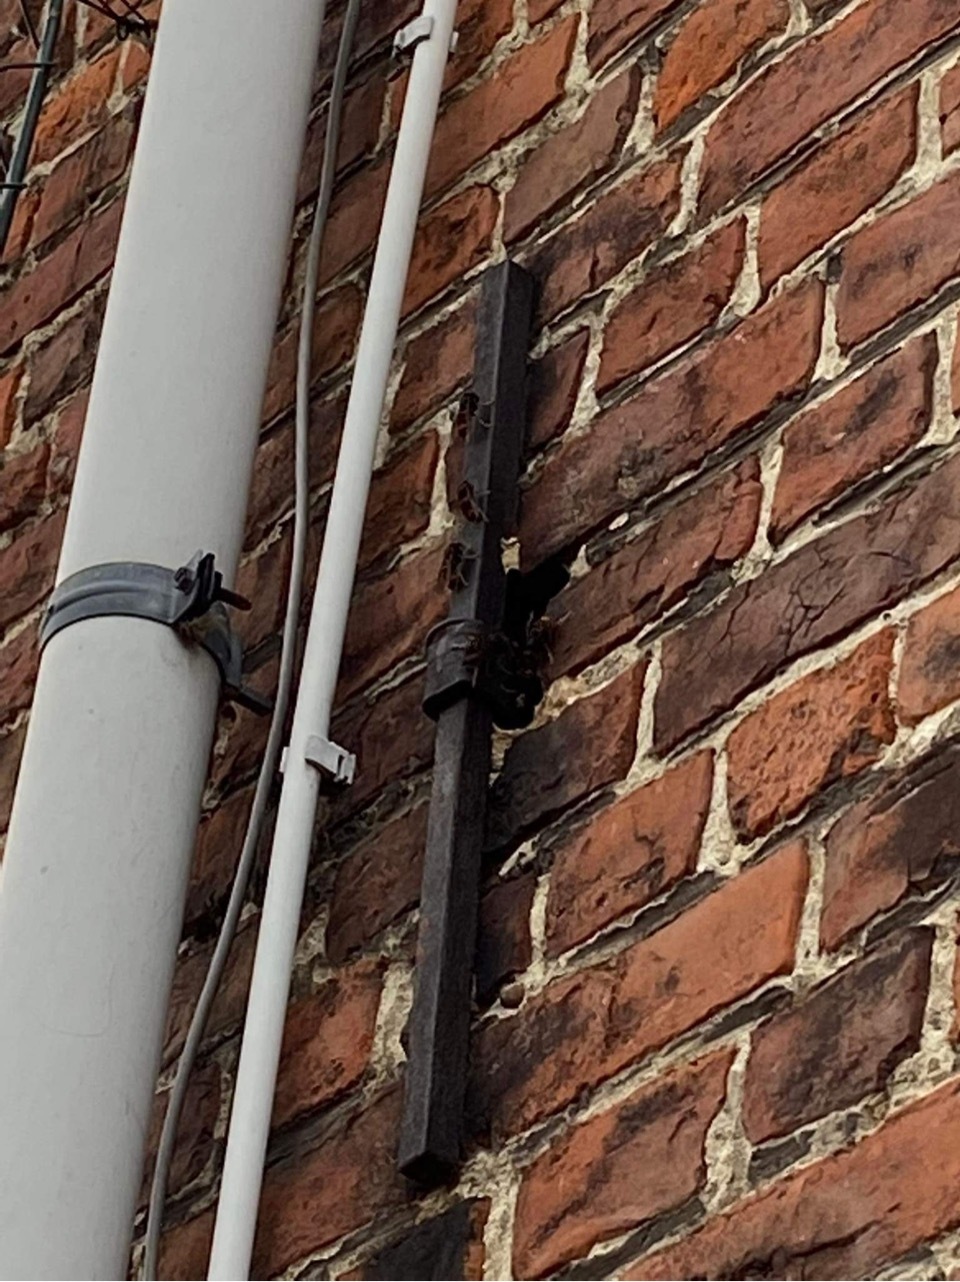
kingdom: Animalia
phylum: Arthropoda
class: Insecta
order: Hymenoptera
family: Vespidae
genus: Vespa
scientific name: Vespa velutina
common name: Asian hornet
